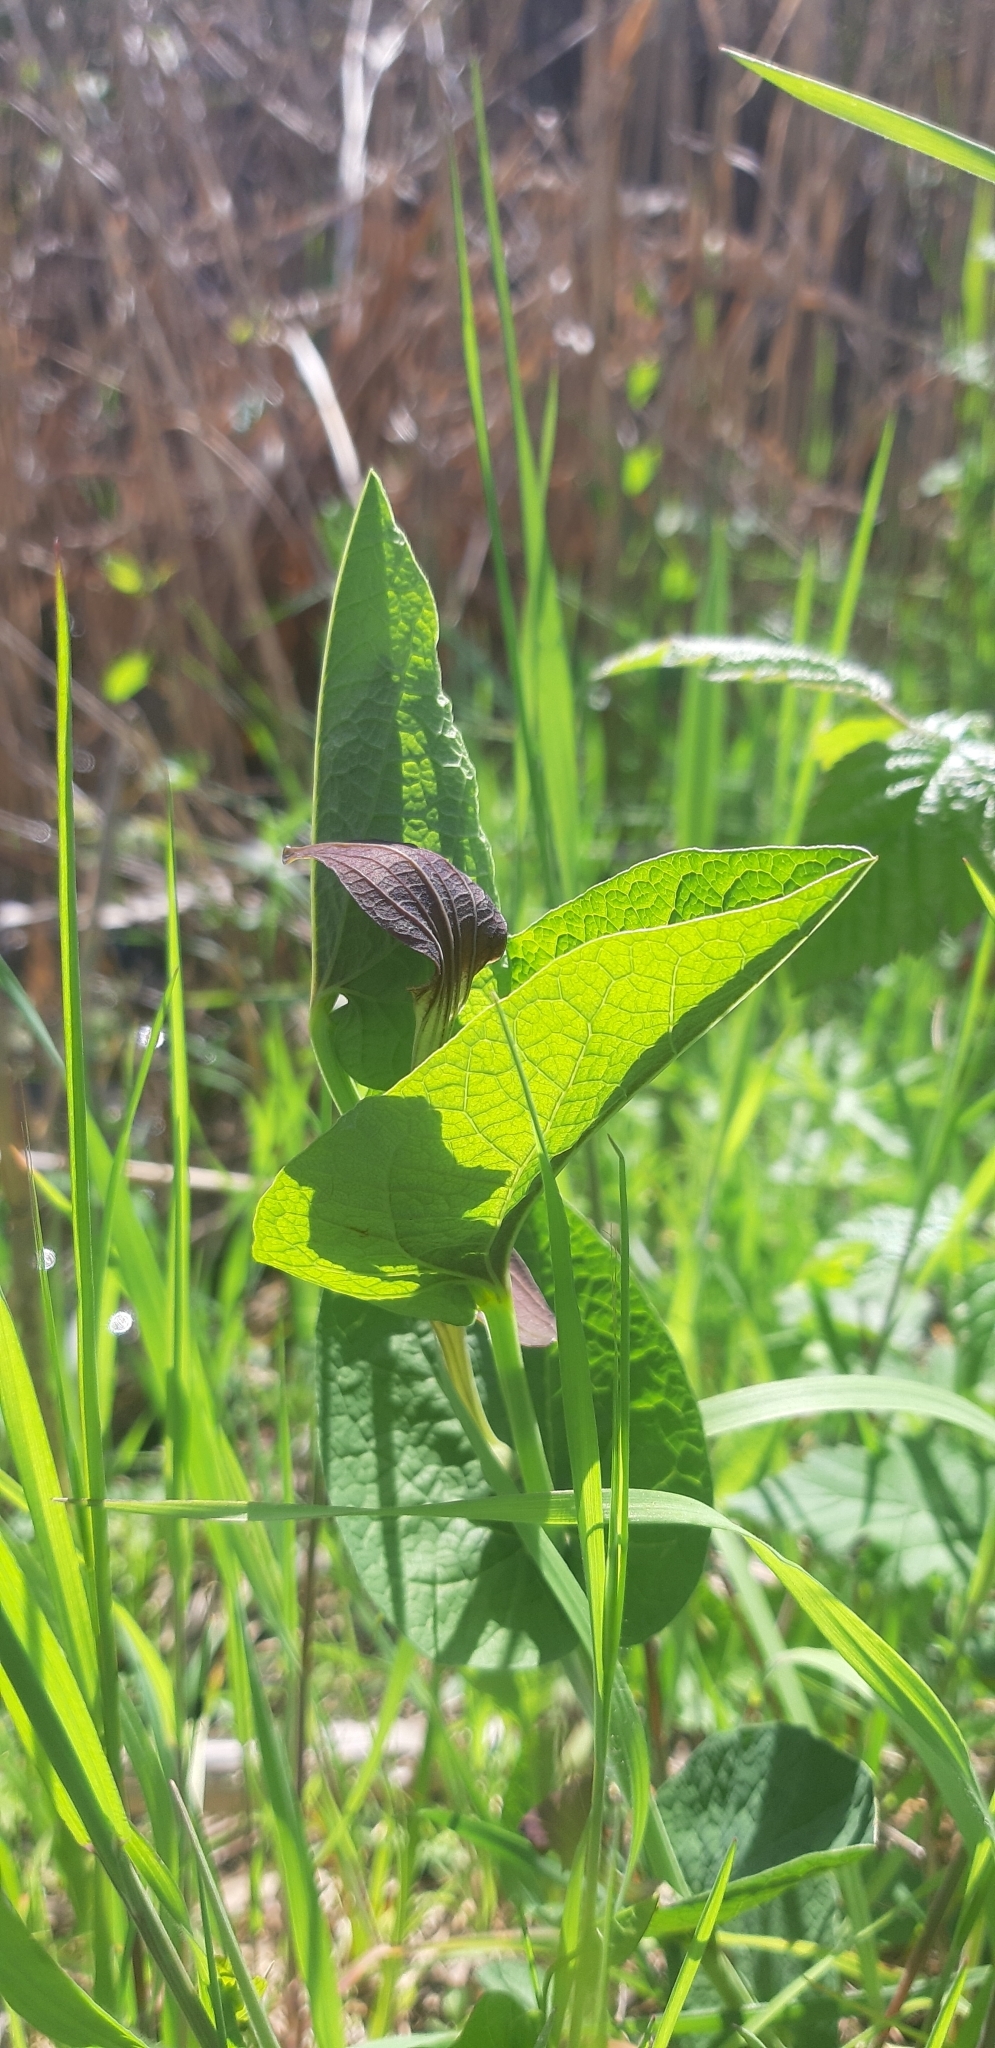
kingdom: Plantae
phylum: Tracheophyta
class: Magnoliopsida
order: Piperales
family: Aristolochiaceae
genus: Aristolochia
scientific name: Aristolochia rotunda
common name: Smearwort
